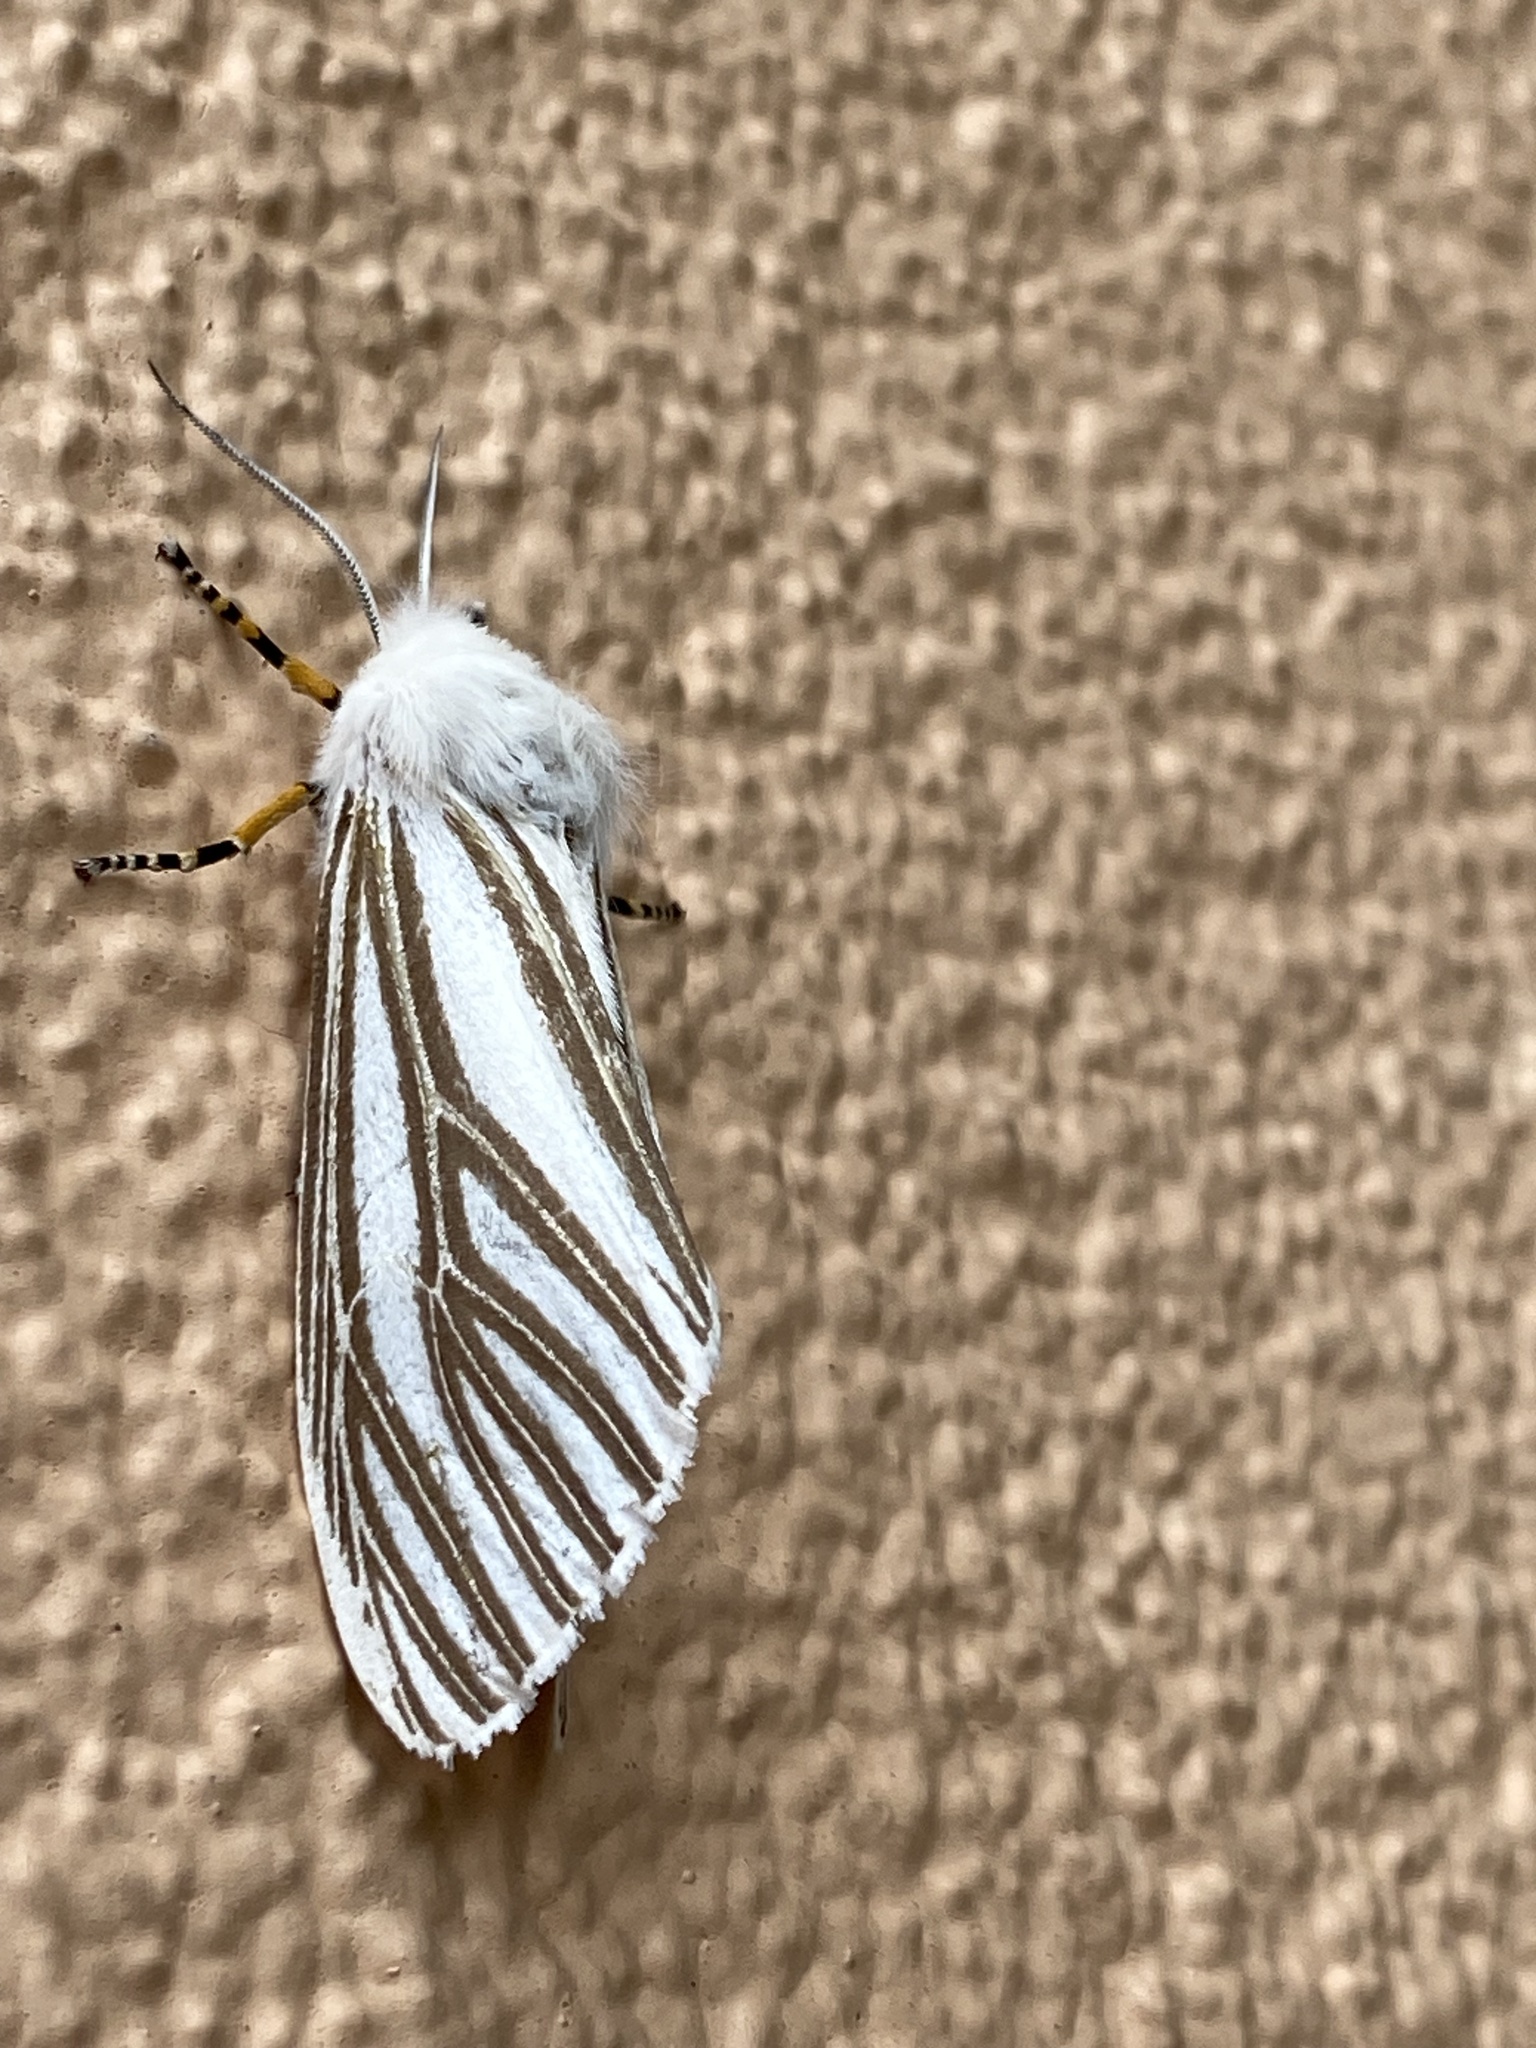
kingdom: Animalia
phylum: Arthropoda
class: Insecta
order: Lepidoptera
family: Erebidae
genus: Seirarctia
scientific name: Seirarctia echo
